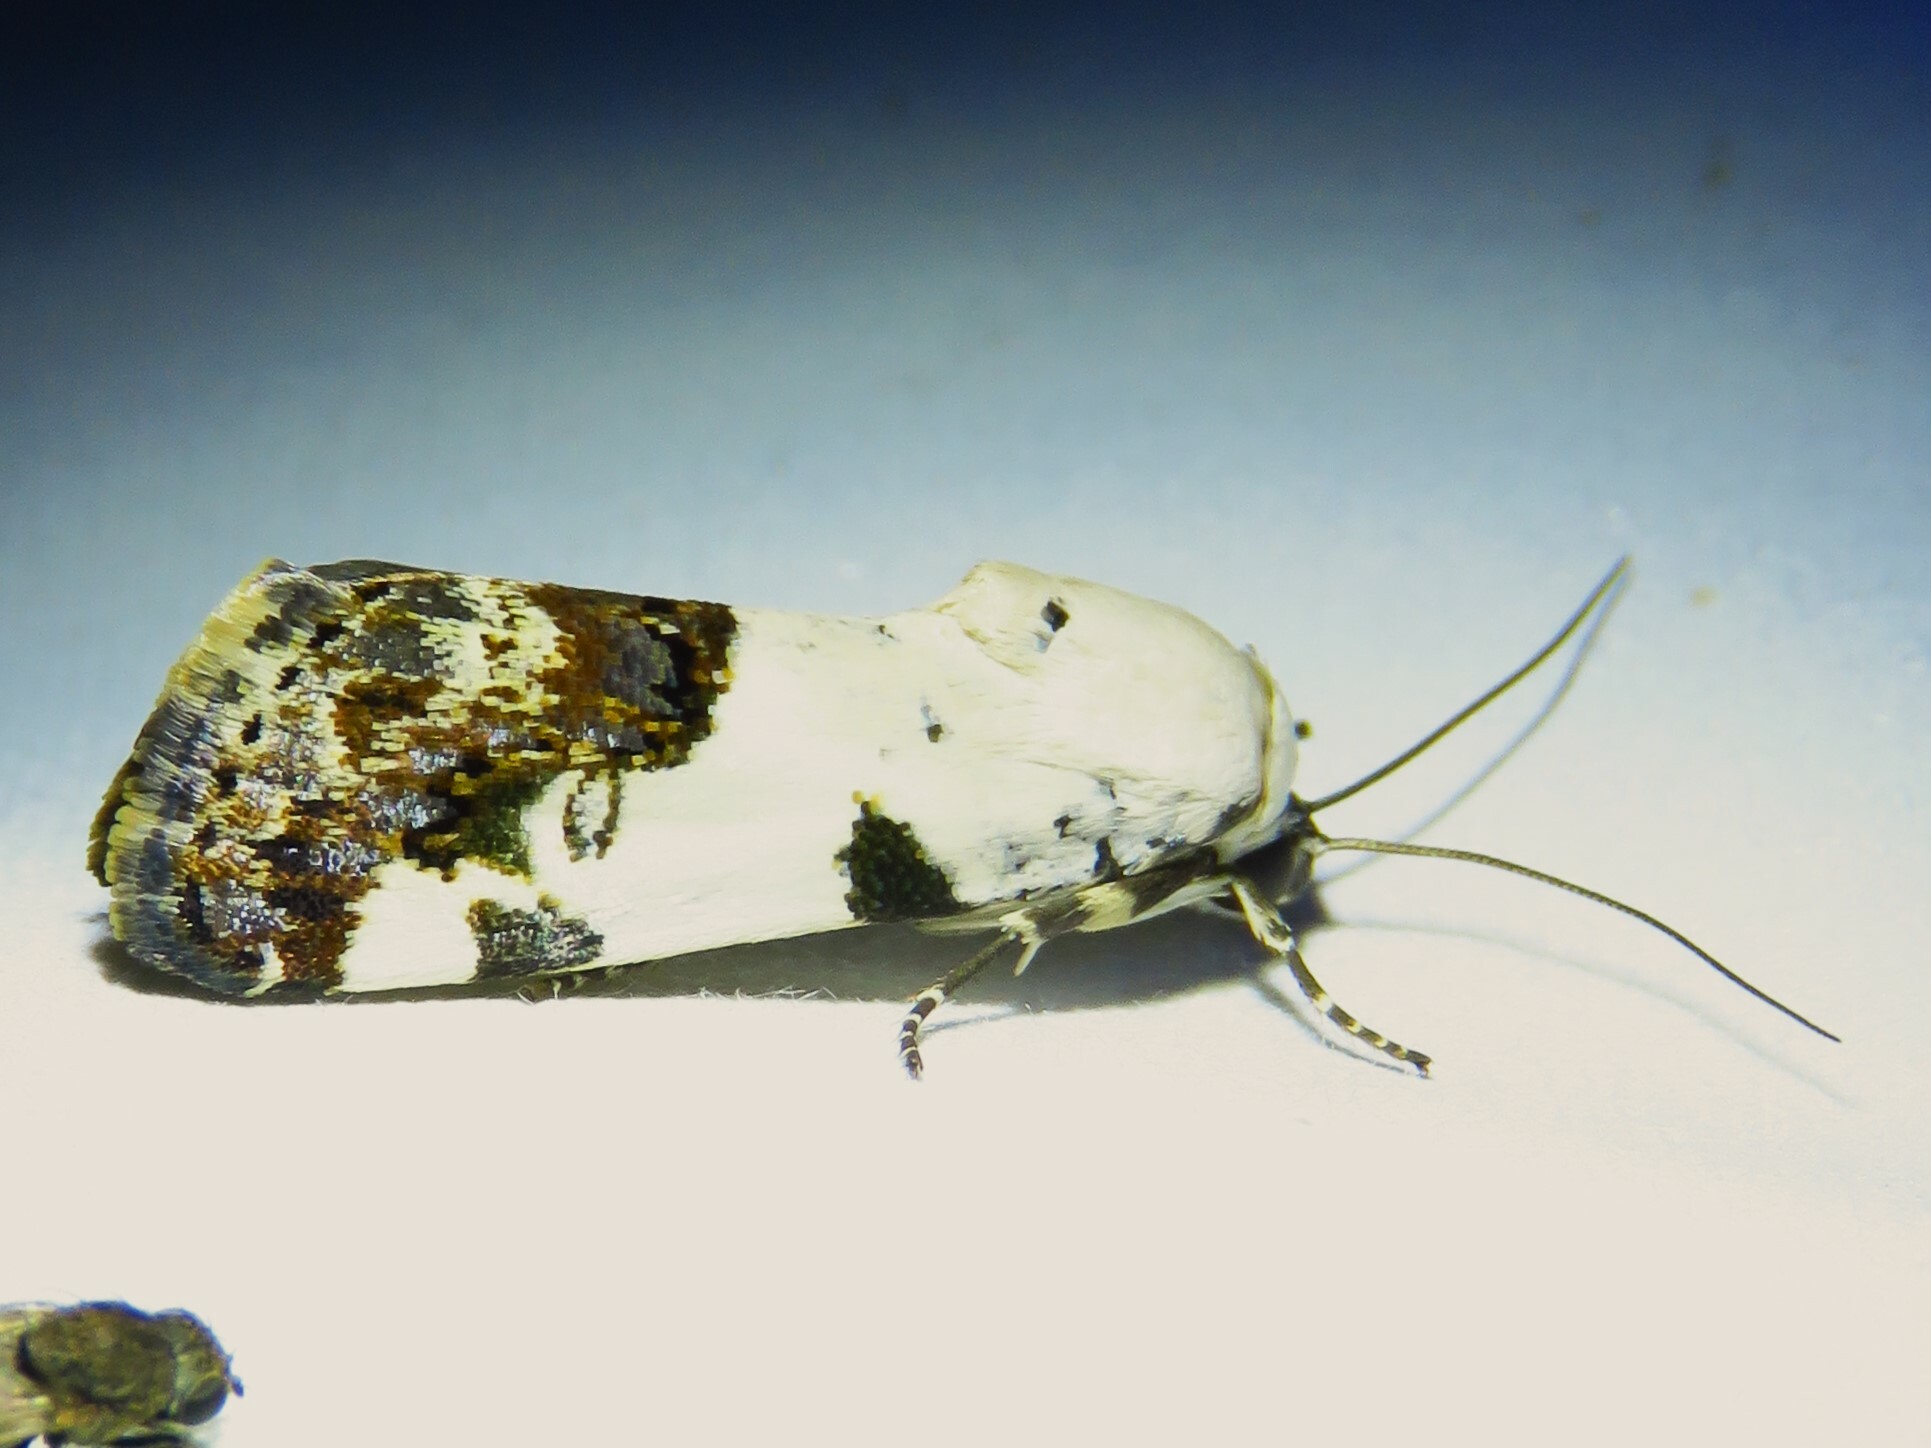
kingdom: Animalia
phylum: Arthropoda
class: Insecta
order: Lepidoptera
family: Noctuidae
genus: Acontia
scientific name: Acontia aprica
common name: Nun
